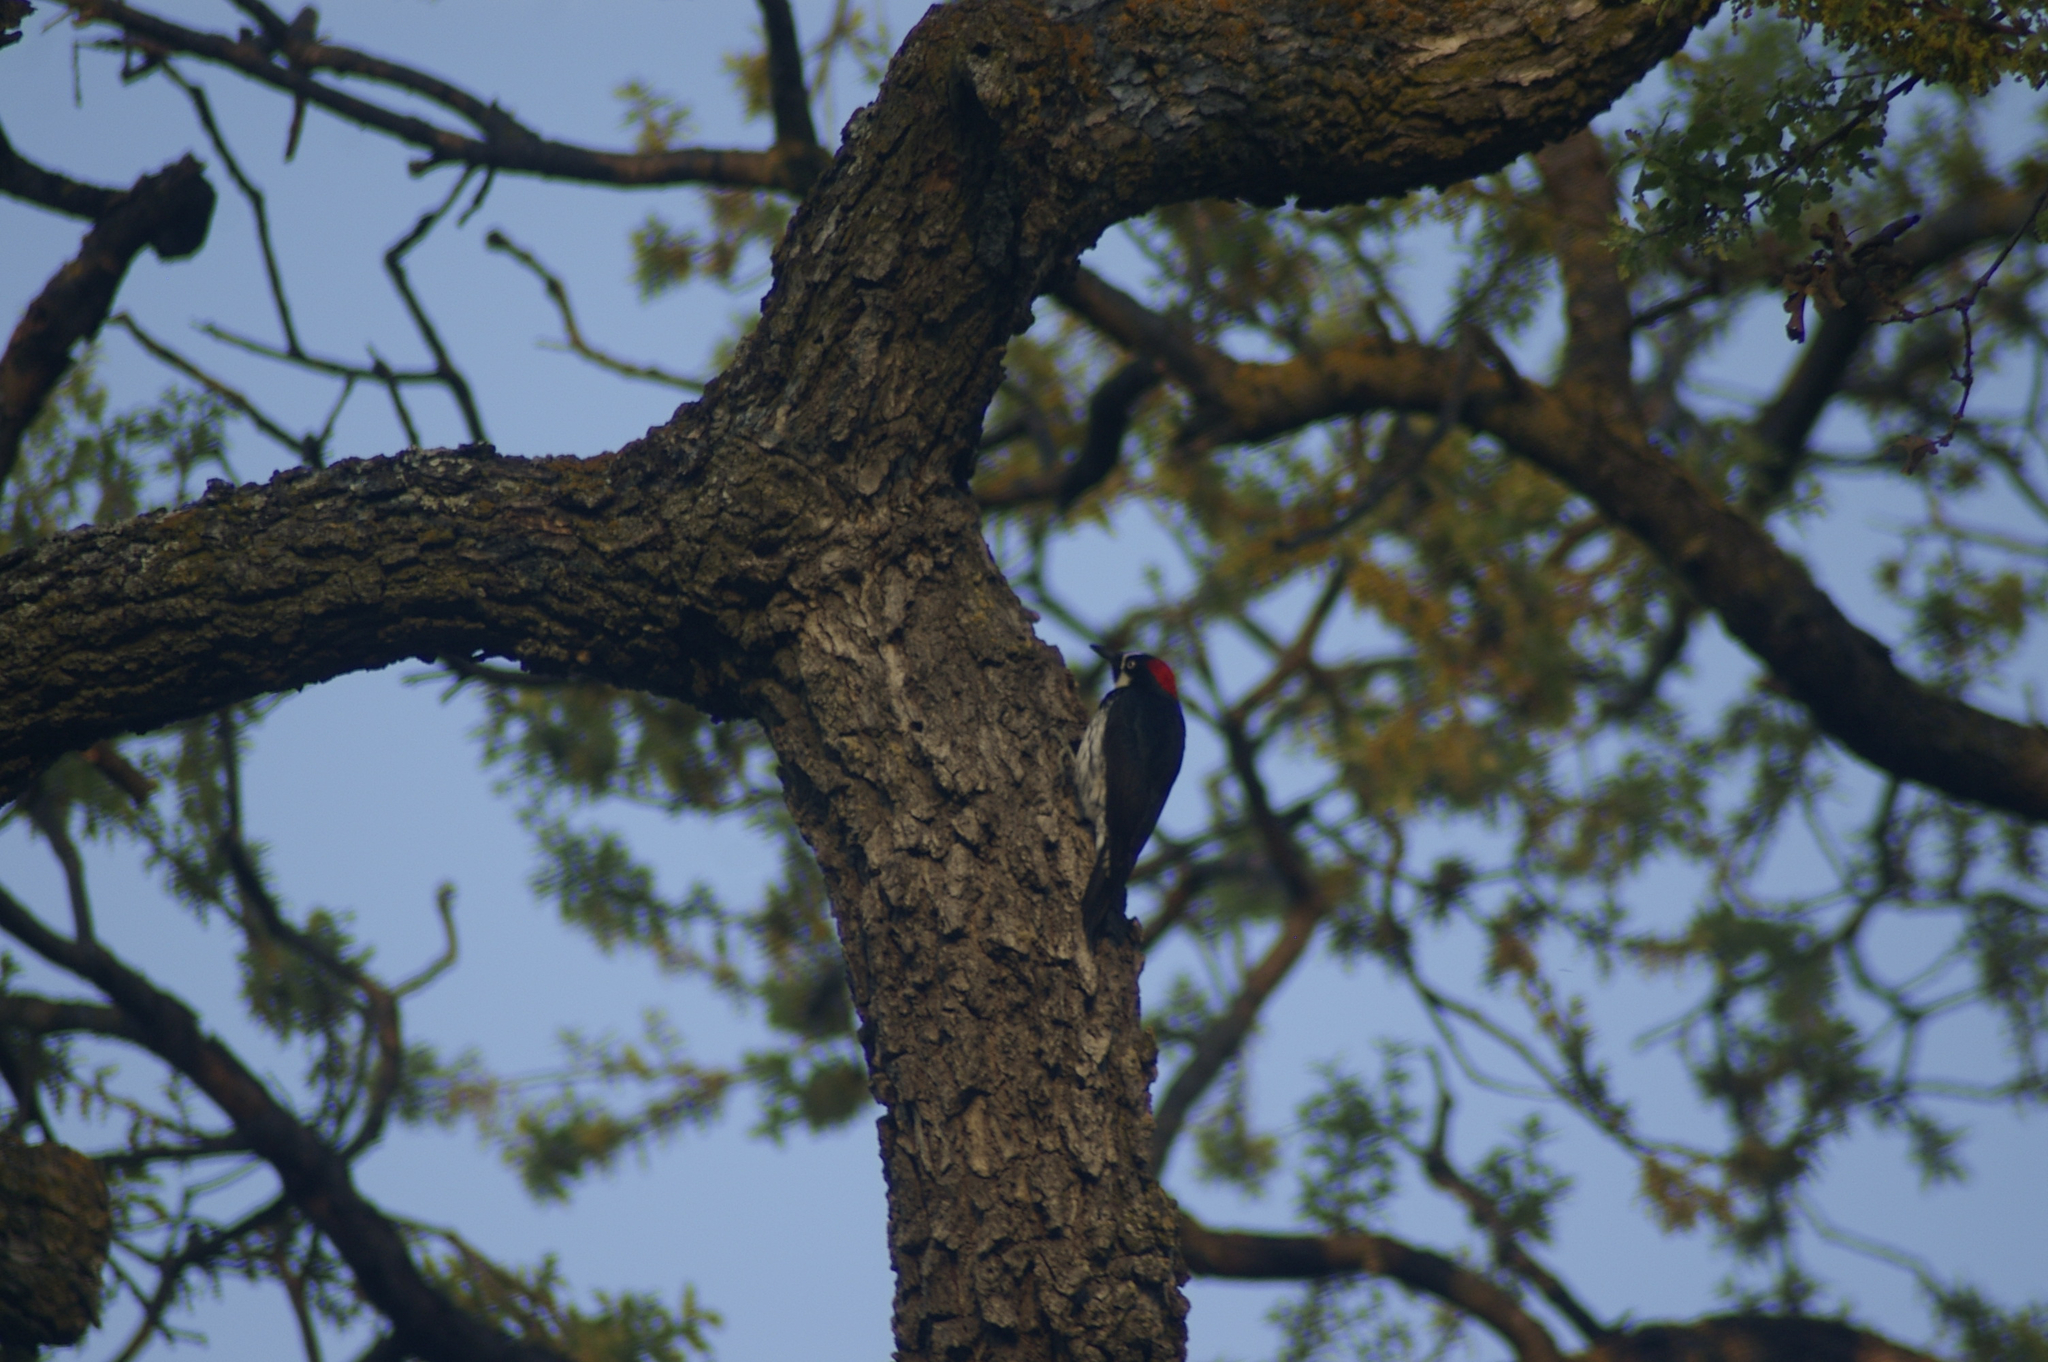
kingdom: Animalia
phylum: Chordata
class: Aves
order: Piciformes
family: Picidae
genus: Melanerpes
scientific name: Melanerpes formicivorus
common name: Acorn woodpecker
